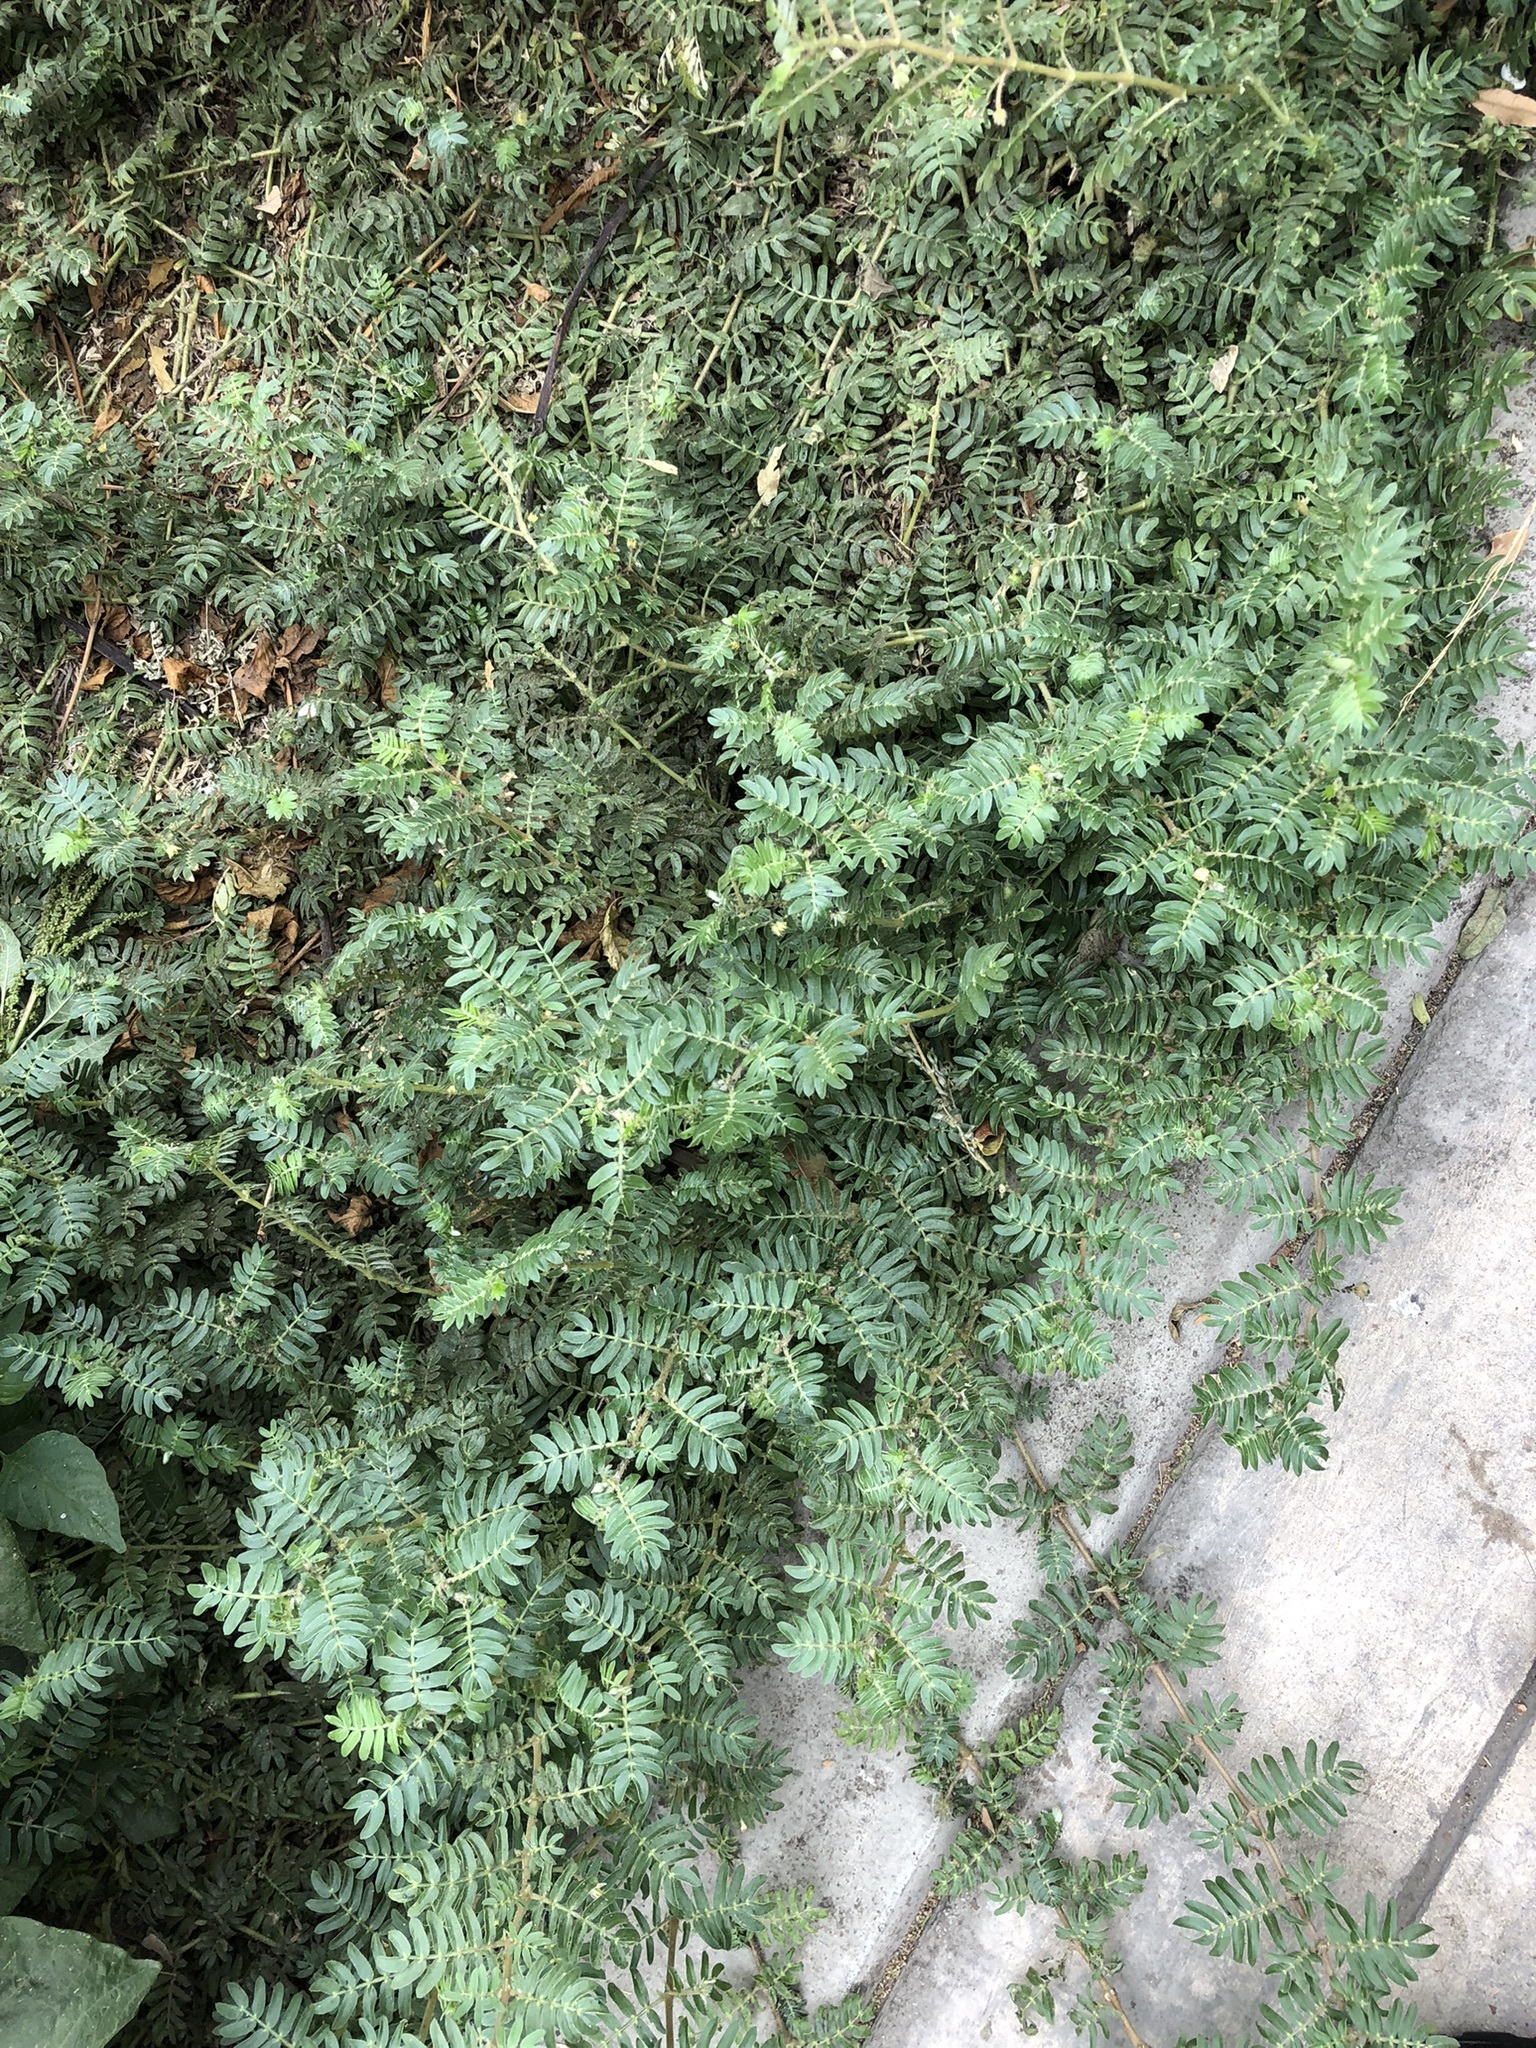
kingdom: Plantae
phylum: Tracheophyta
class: Magnoliopsida
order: Zygophyllales
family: Zygophyllaceae
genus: Tribulus
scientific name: Tribulus terrestris
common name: Puncturevine
